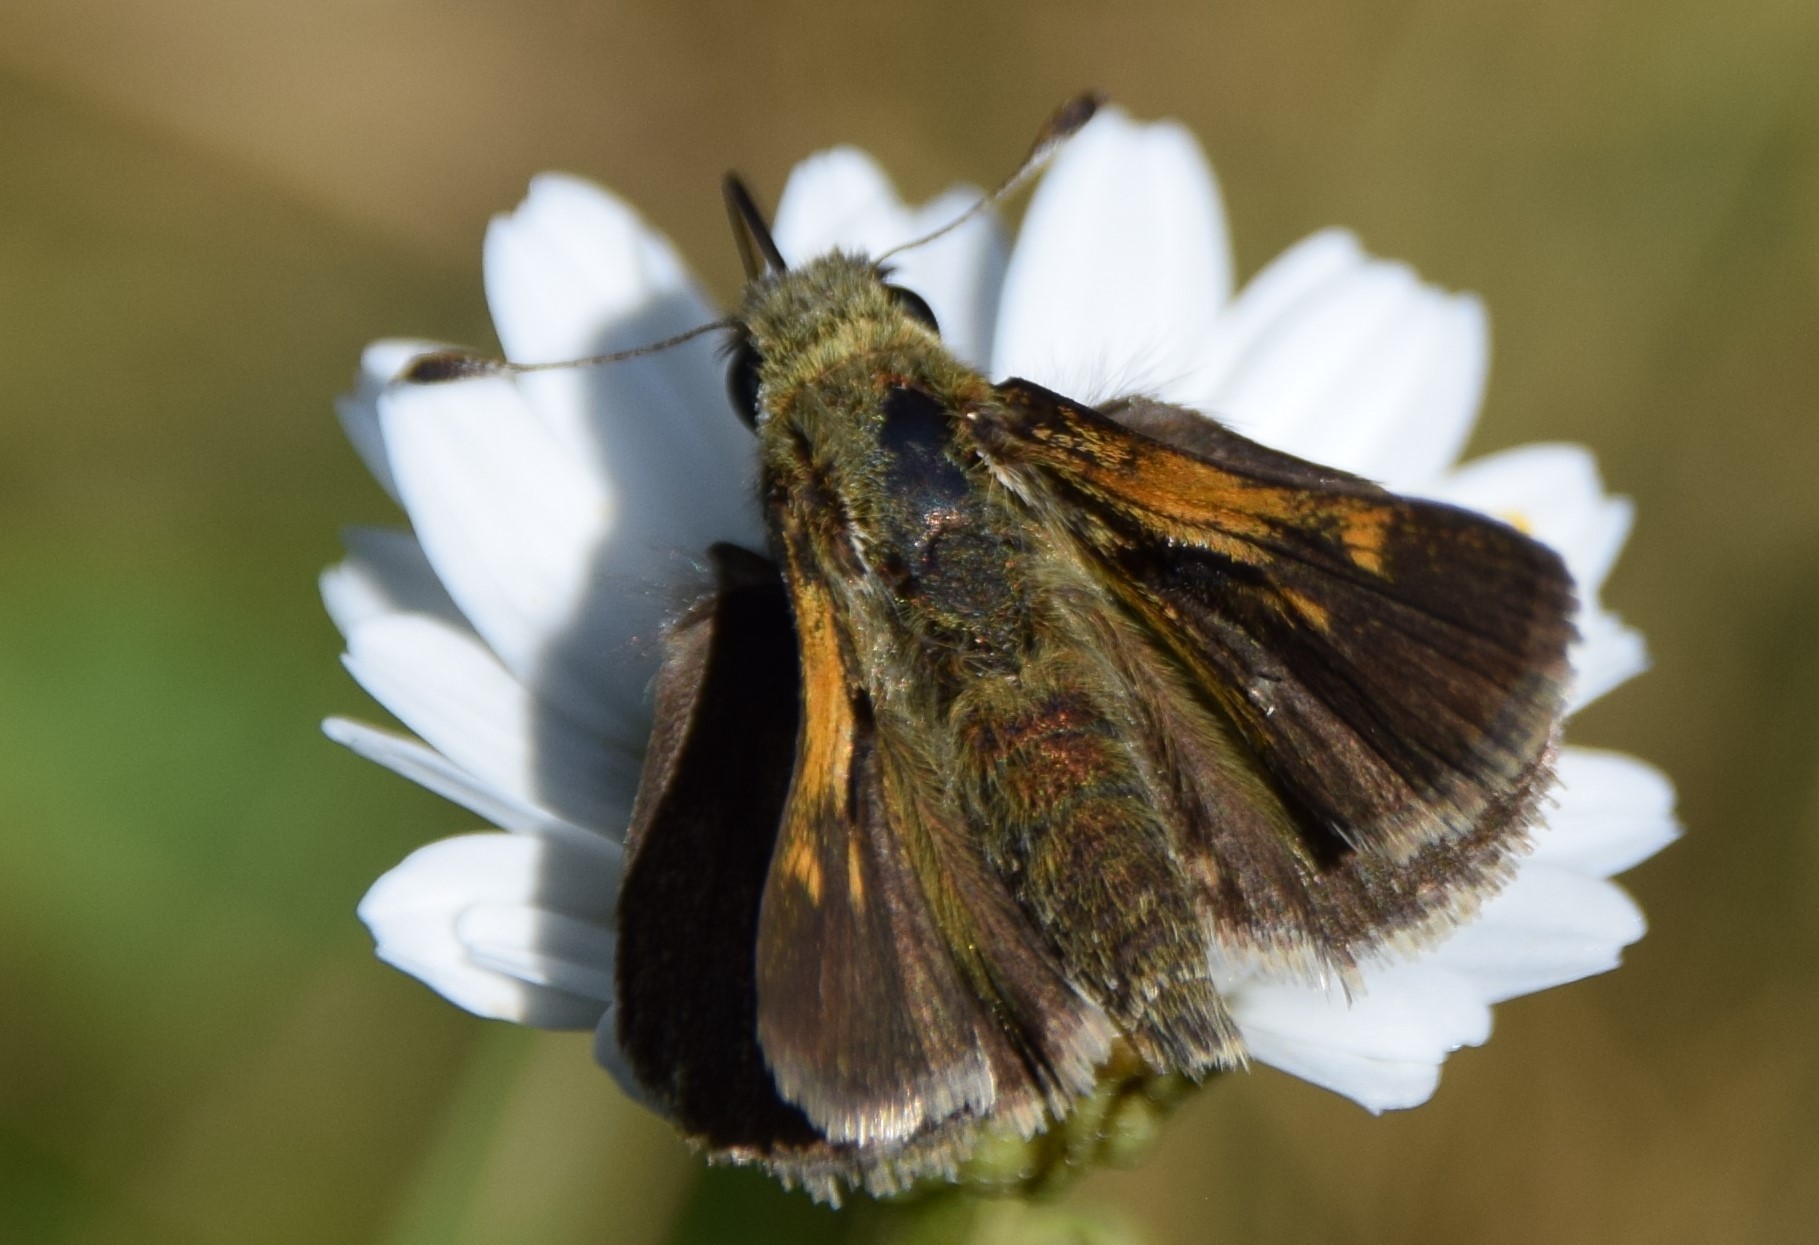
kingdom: Animalia
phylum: Arthropoda
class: Insecta
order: Lepidoptera
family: Hesperiidae
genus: Polites
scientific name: Polites themistocles
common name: Tawny-edged skipper
